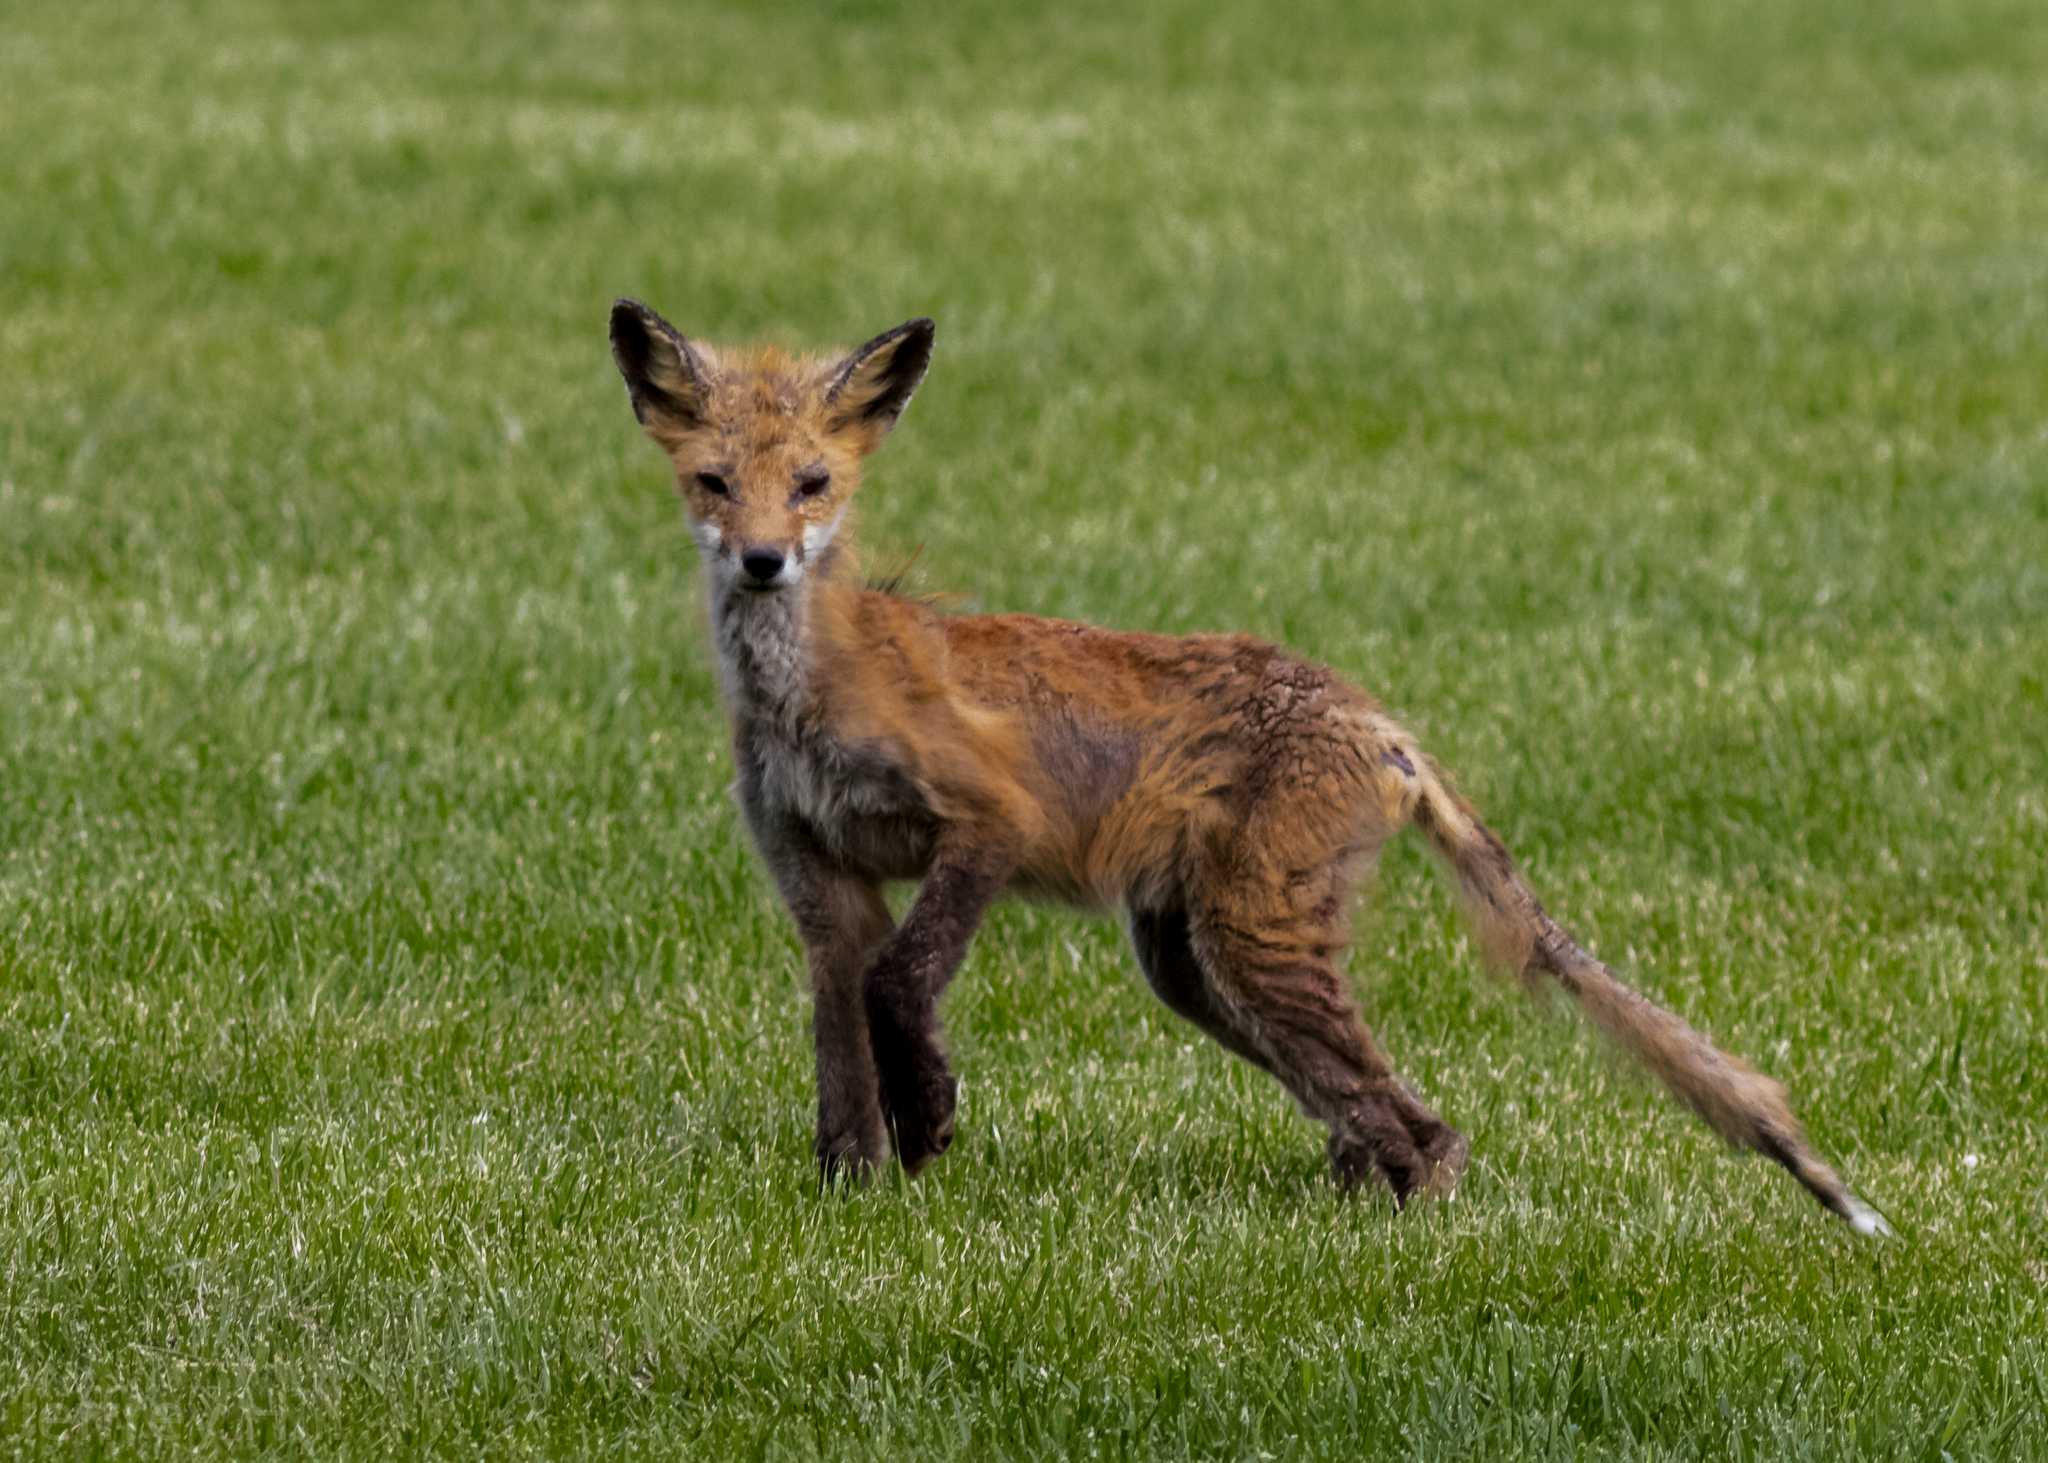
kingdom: Animalia
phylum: Chordata
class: Mammalia
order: Carnivora
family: Canidae
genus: Vulpes
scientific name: Vulpes vulpes
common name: Red fox
